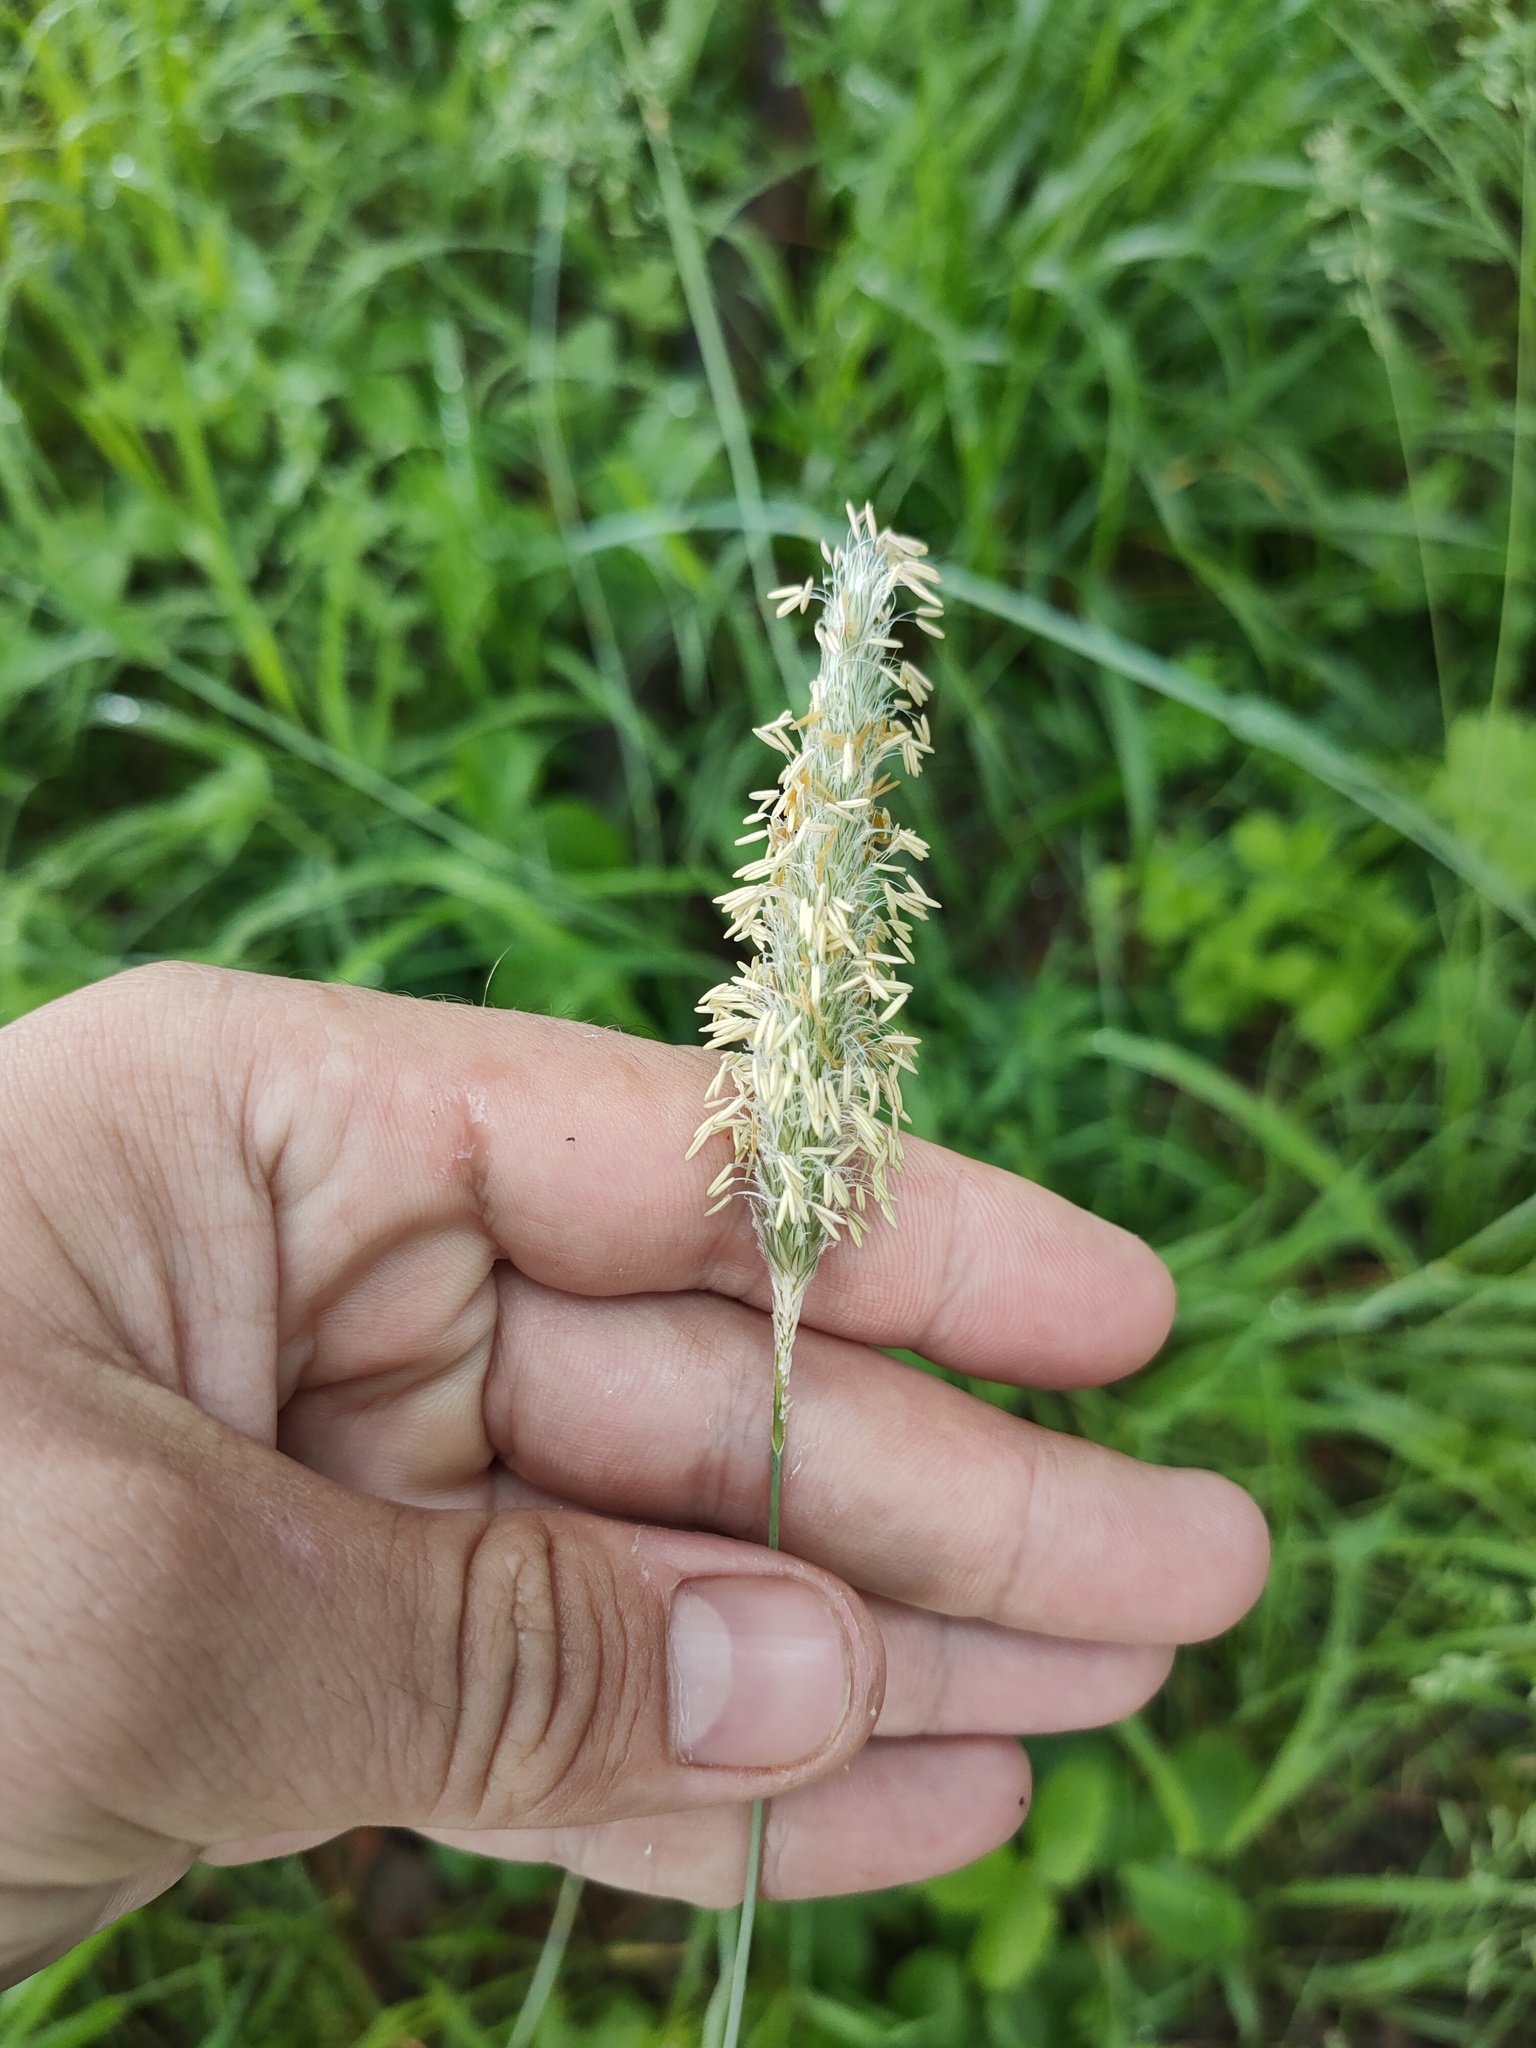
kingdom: Plantae
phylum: Tracheophyta
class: Liliopsida
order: Poales
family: Poaceae
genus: Alopecurus
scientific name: Alopecurus pratensis
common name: Meadow foxtail
